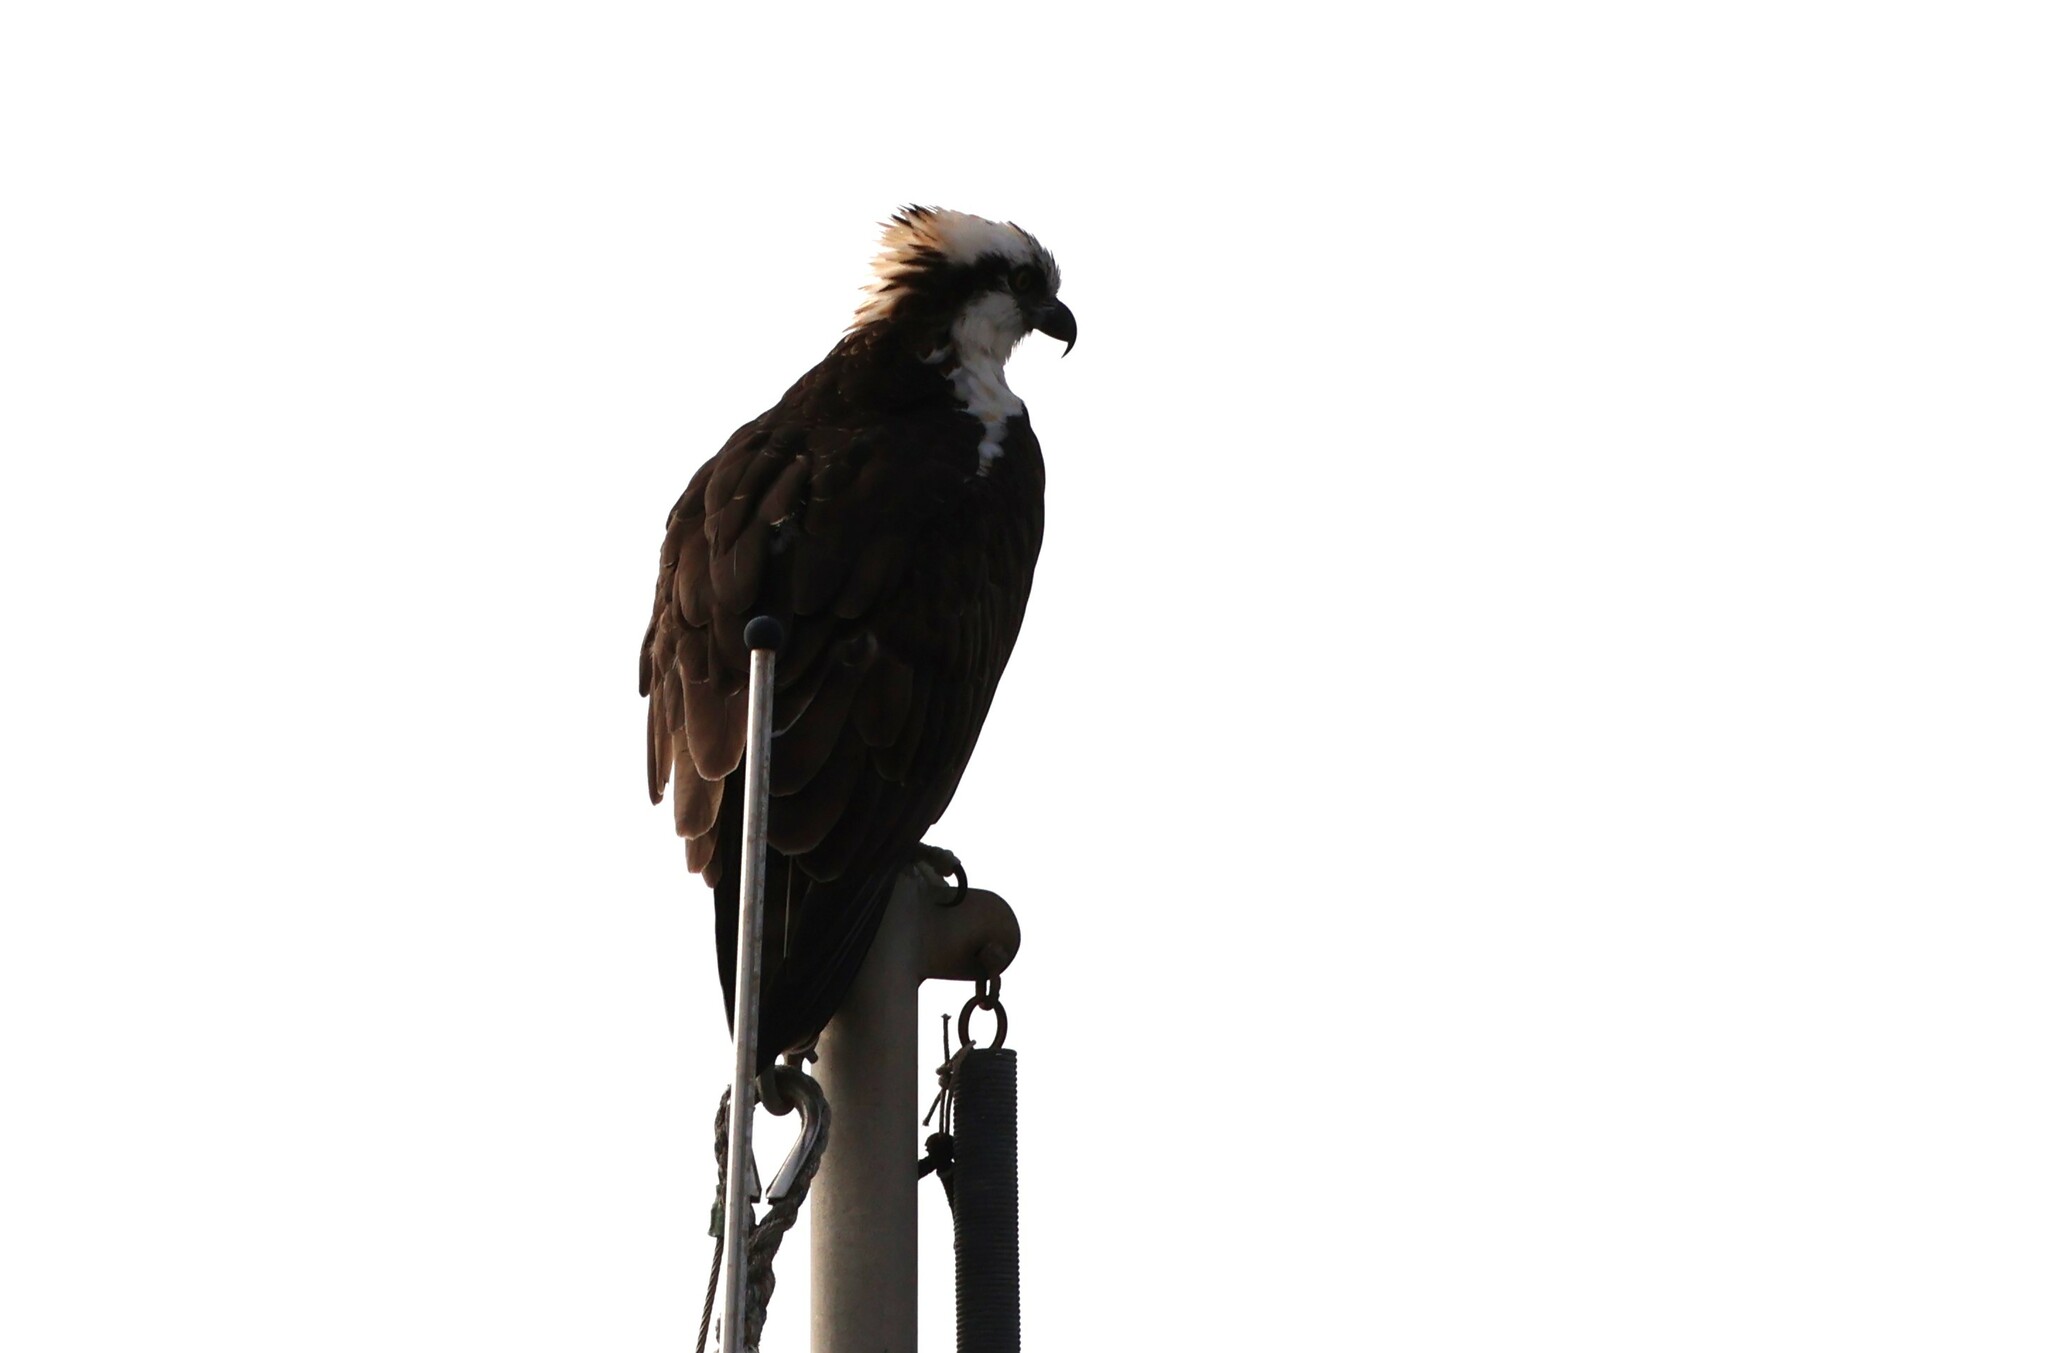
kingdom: Animalia
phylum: Chordata
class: Aves
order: Accipitriformes
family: Pandionidae
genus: Pandion
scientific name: Pandion haliaetus
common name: Osprey
